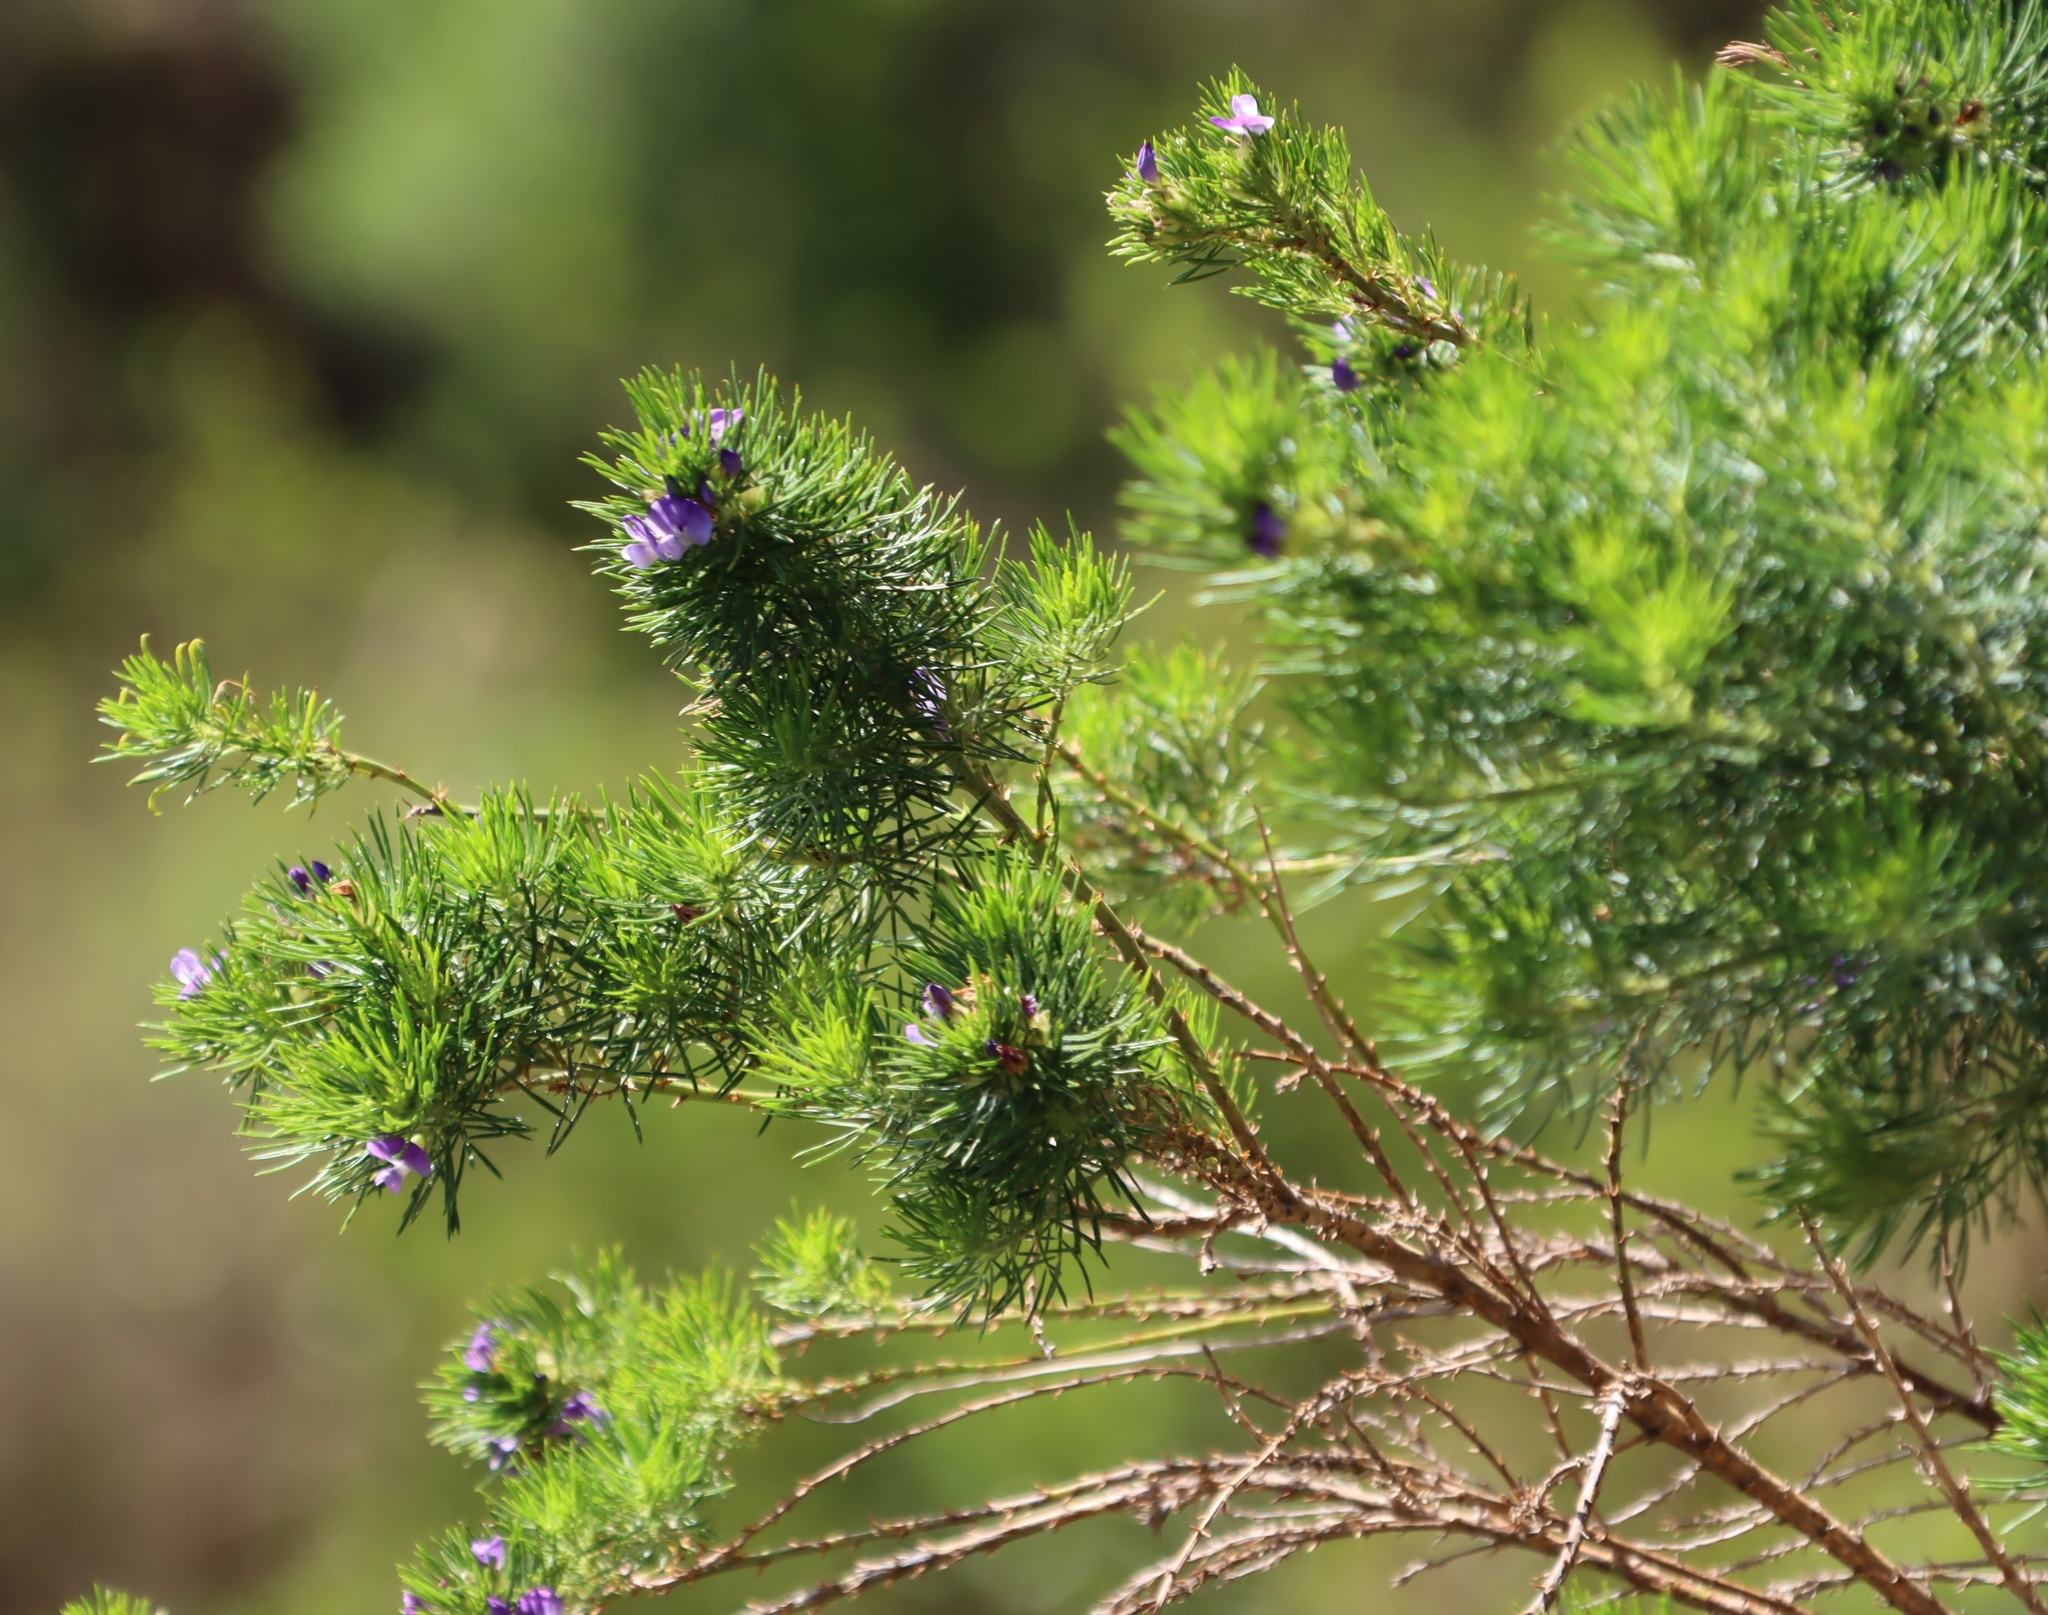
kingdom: Plantae
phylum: Tracheophyta
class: Magnoliopsida
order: Fabales
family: Fabaceae
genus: Psoralea
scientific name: Psoralea pinnata
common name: African scurfpea
